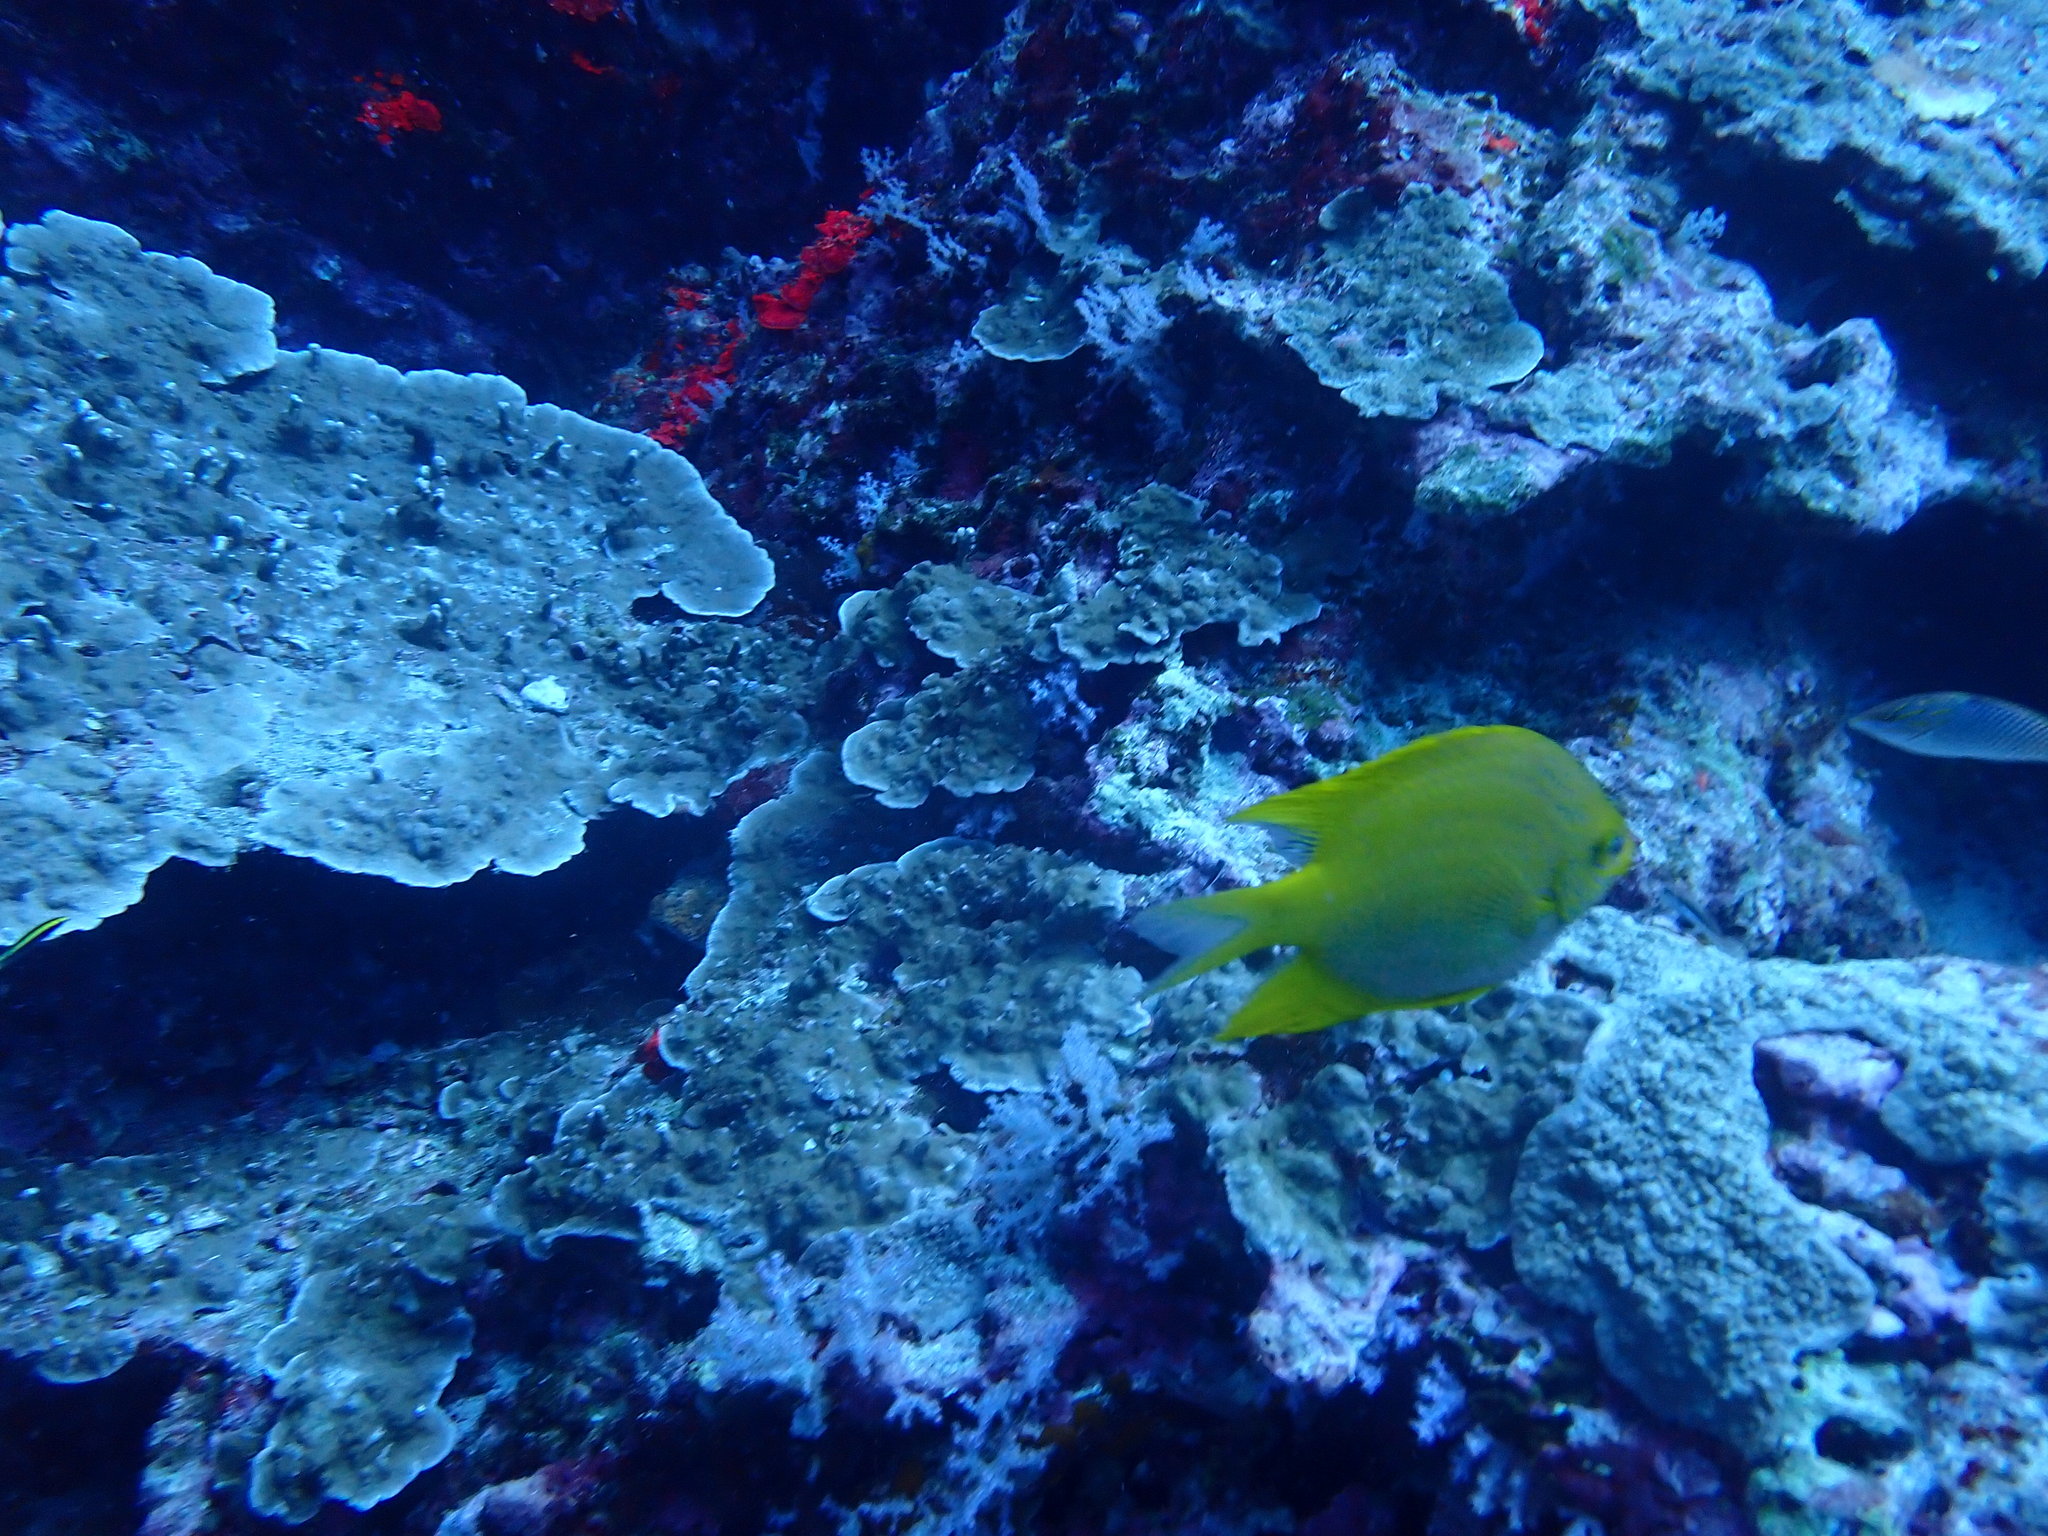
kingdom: Animalia
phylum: Chordata
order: Perciformes
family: Pomacentridae
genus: Amblyglyphidodon
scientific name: Amblyglyphidodon aureus
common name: Golden damsel
